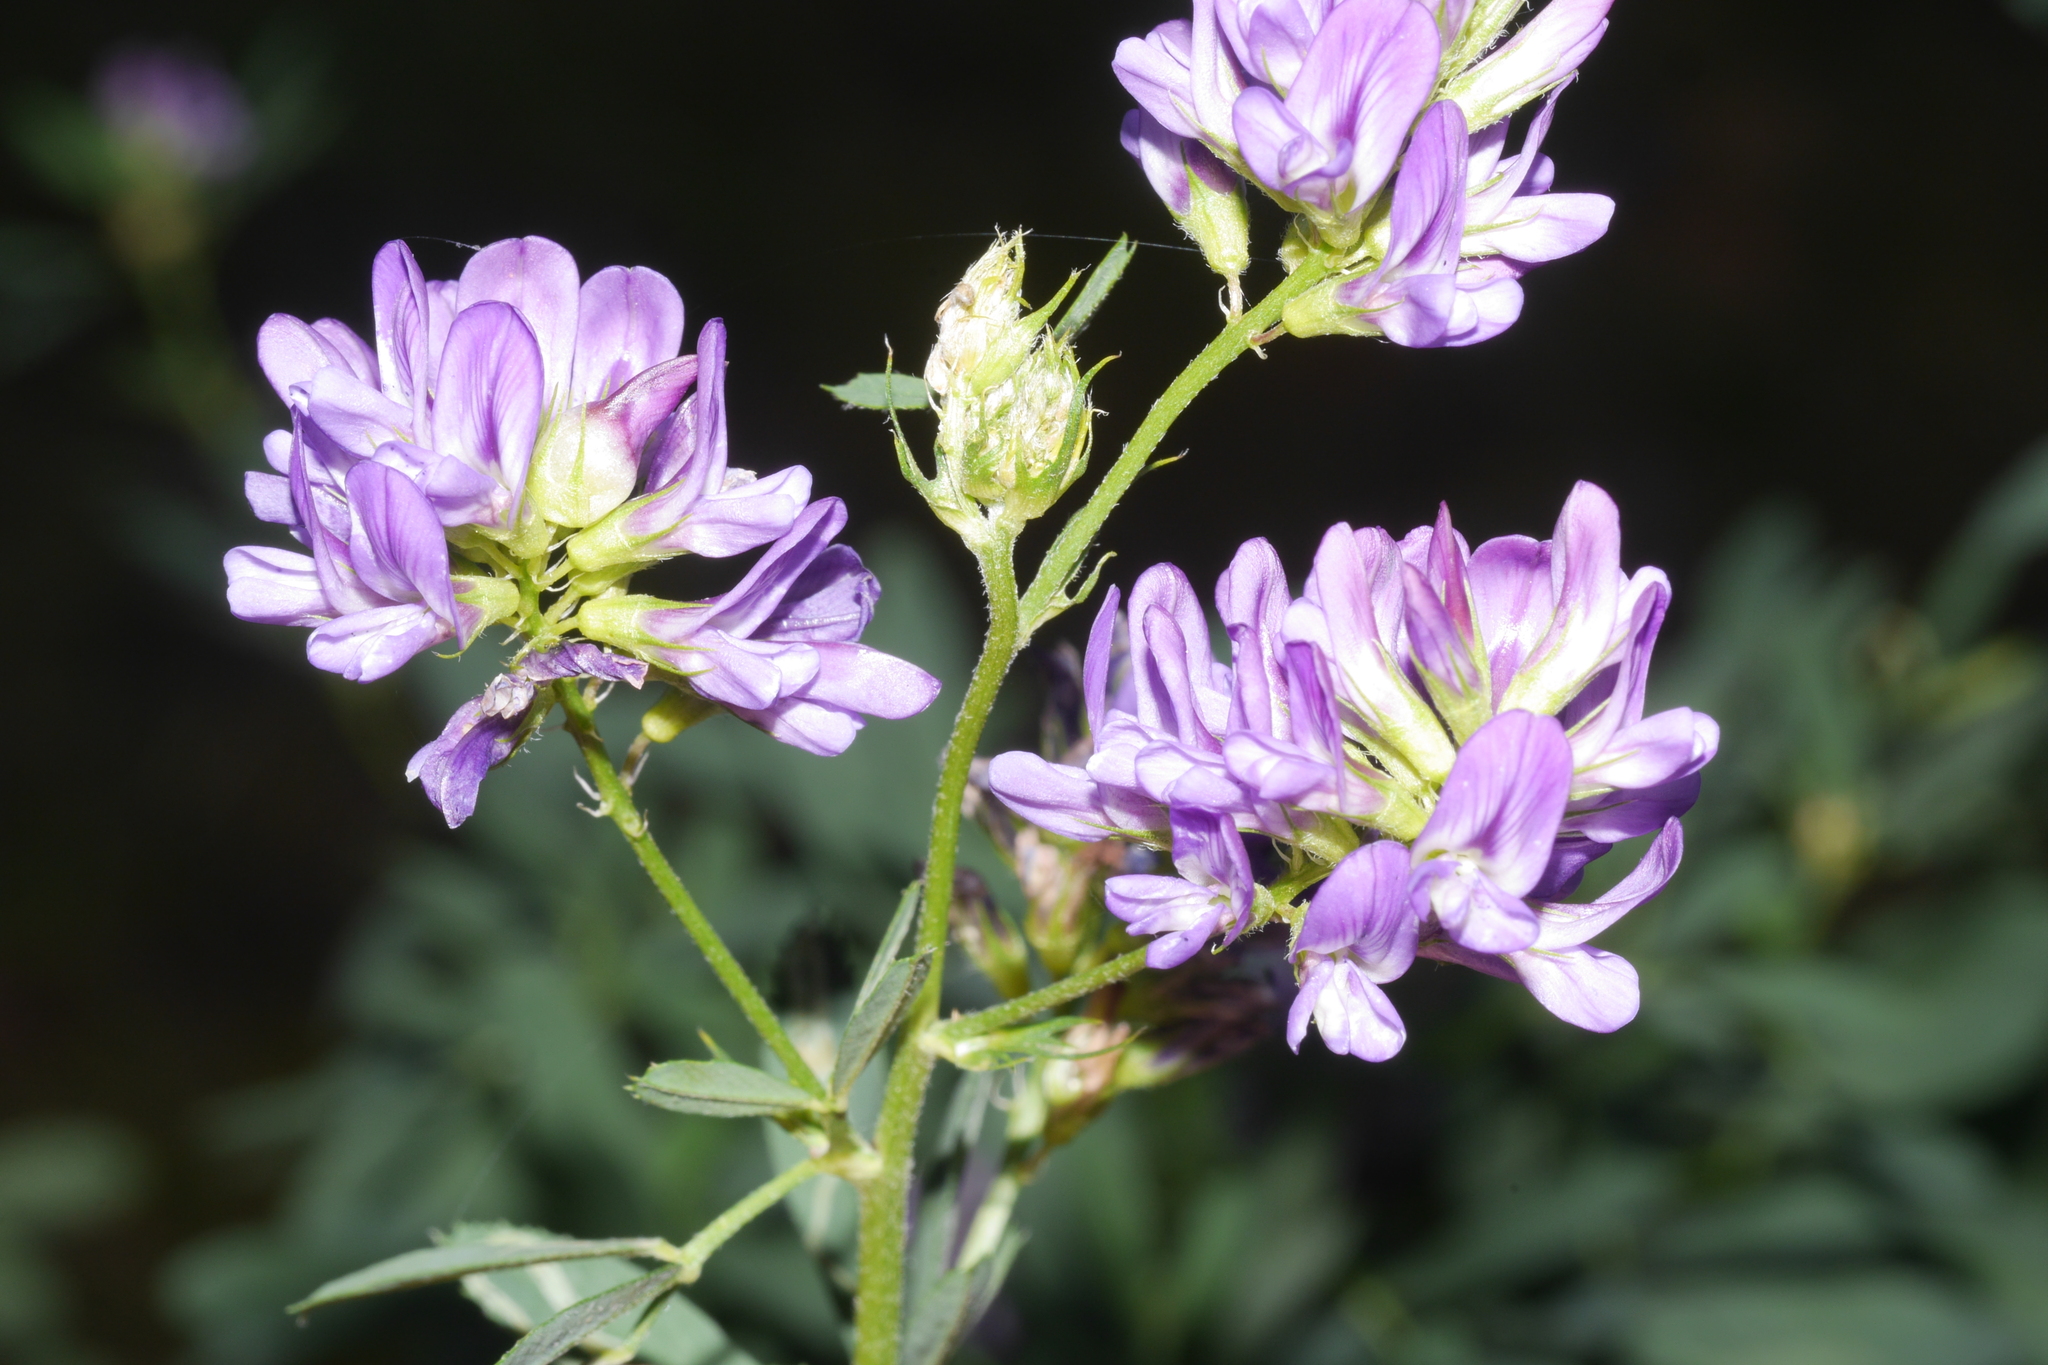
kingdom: Plantae
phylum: Tracheophyta
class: Magnoliopsida
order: Fabales
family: Fabaceae
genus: Medicago
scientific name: Medicago sativa
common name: Alfalfa
